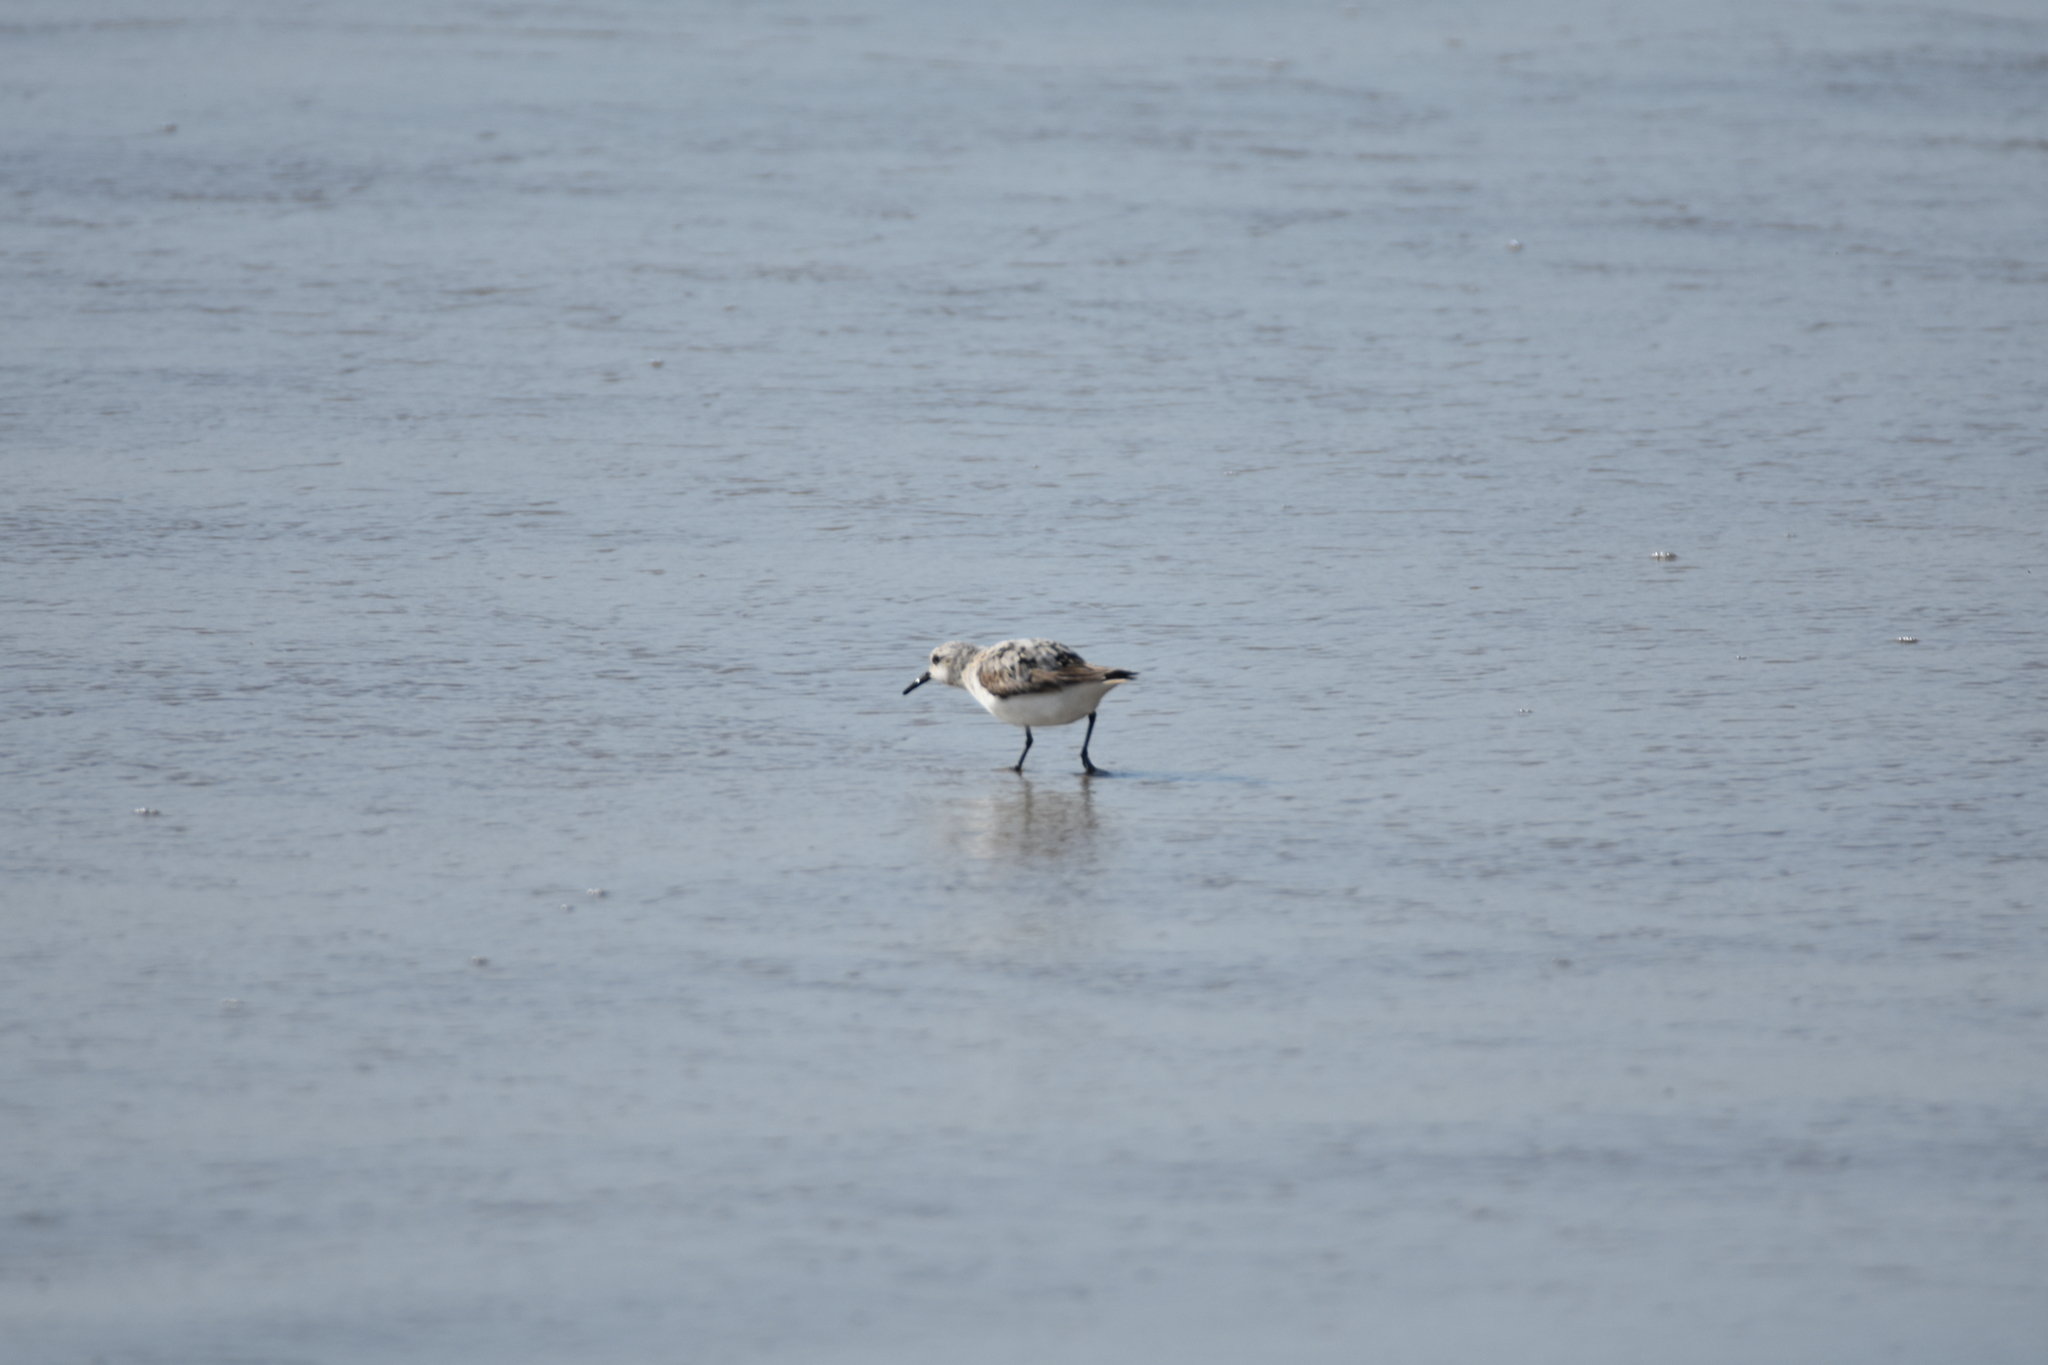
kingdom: Animalia
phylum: Chordata
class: Aves
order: Charadriiformes
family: Scolopacidae
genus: Calidris
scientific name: Calidris alba
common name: Sanderling
